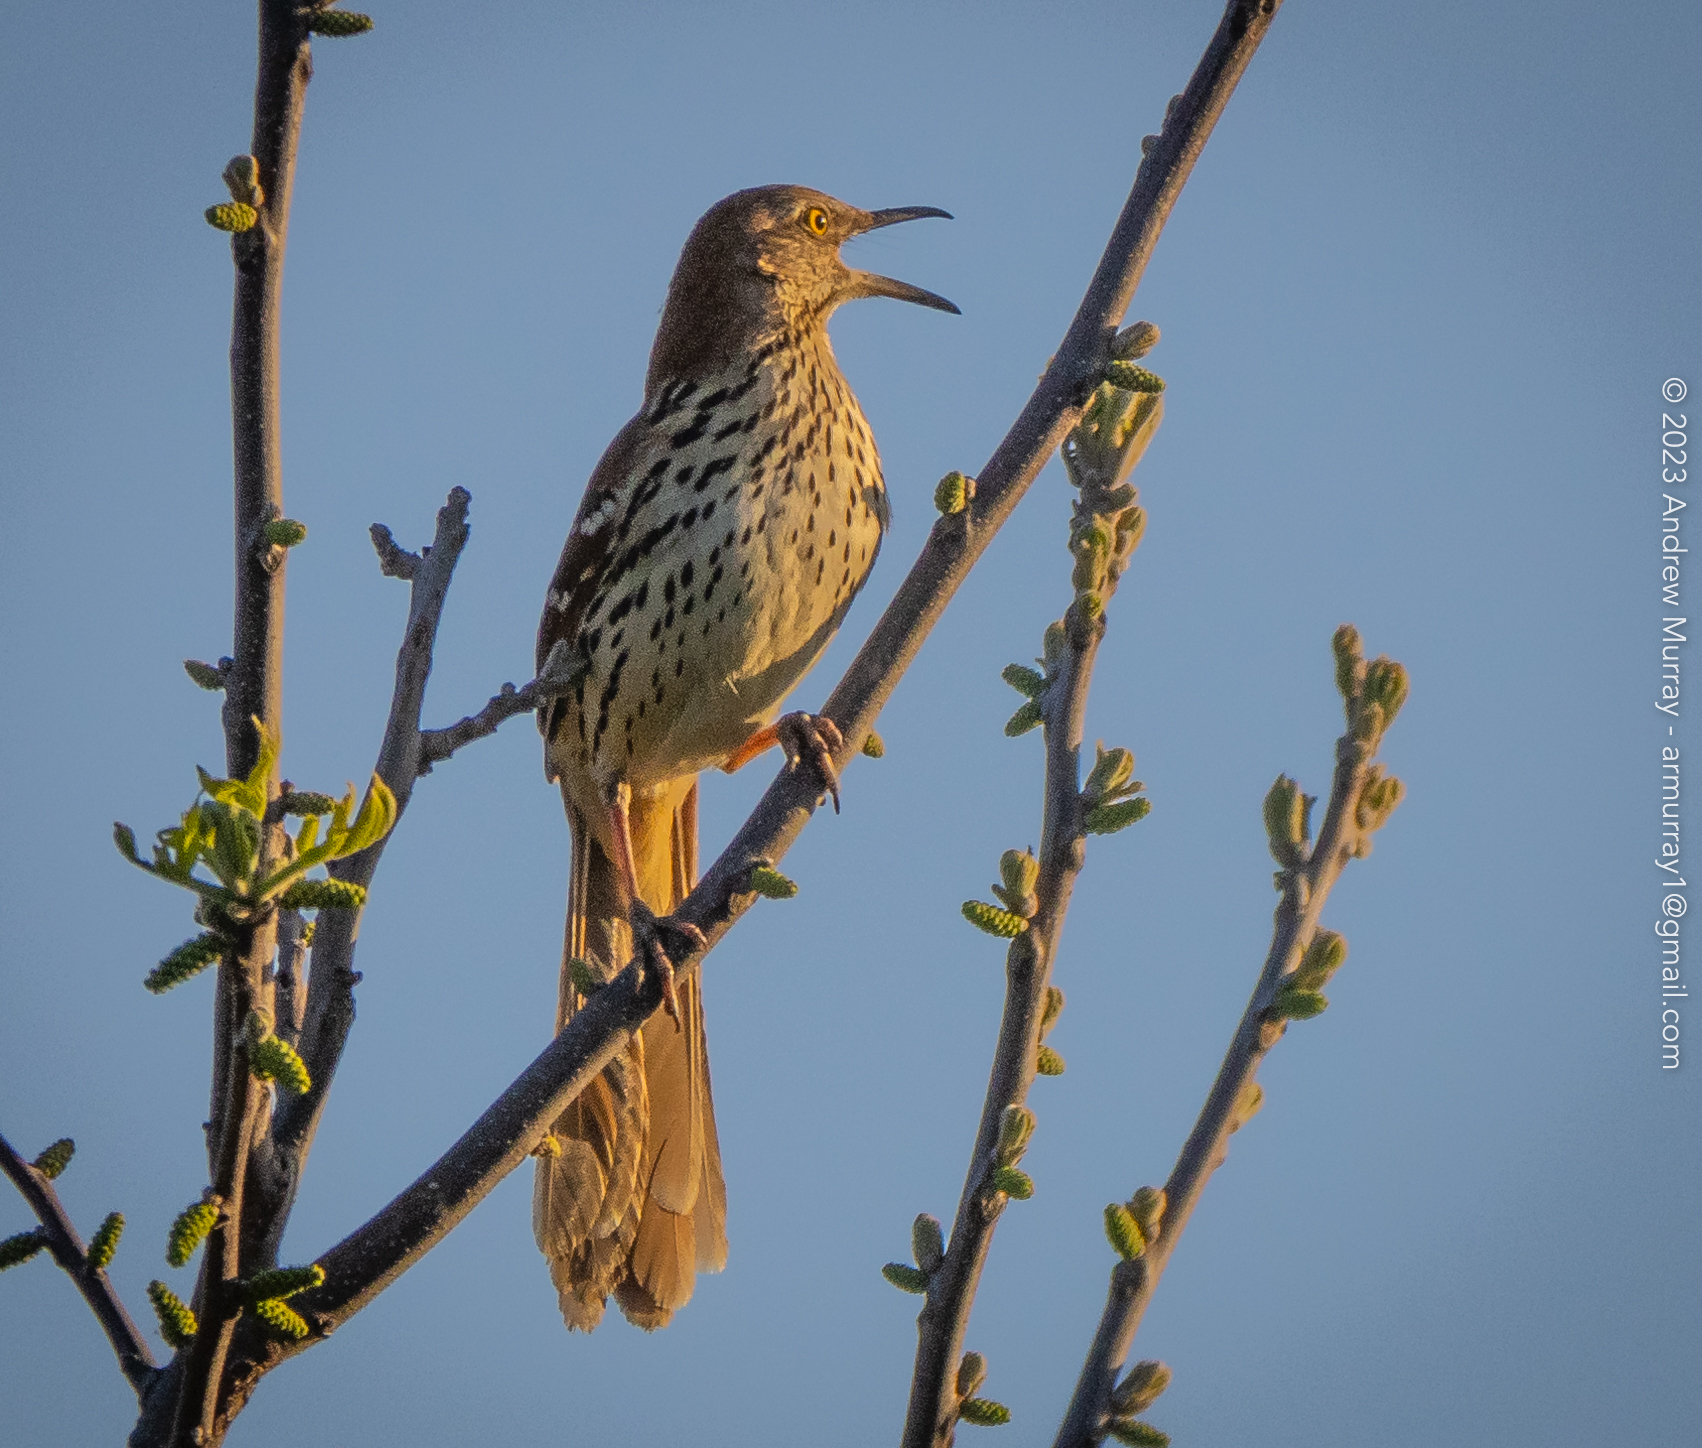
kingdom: Animalia
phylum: Chordata
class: Aves
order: Passeriformes
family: Mimidae
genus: Toxostoma
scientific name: Toxostoma rufum
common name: Brown thrasher
